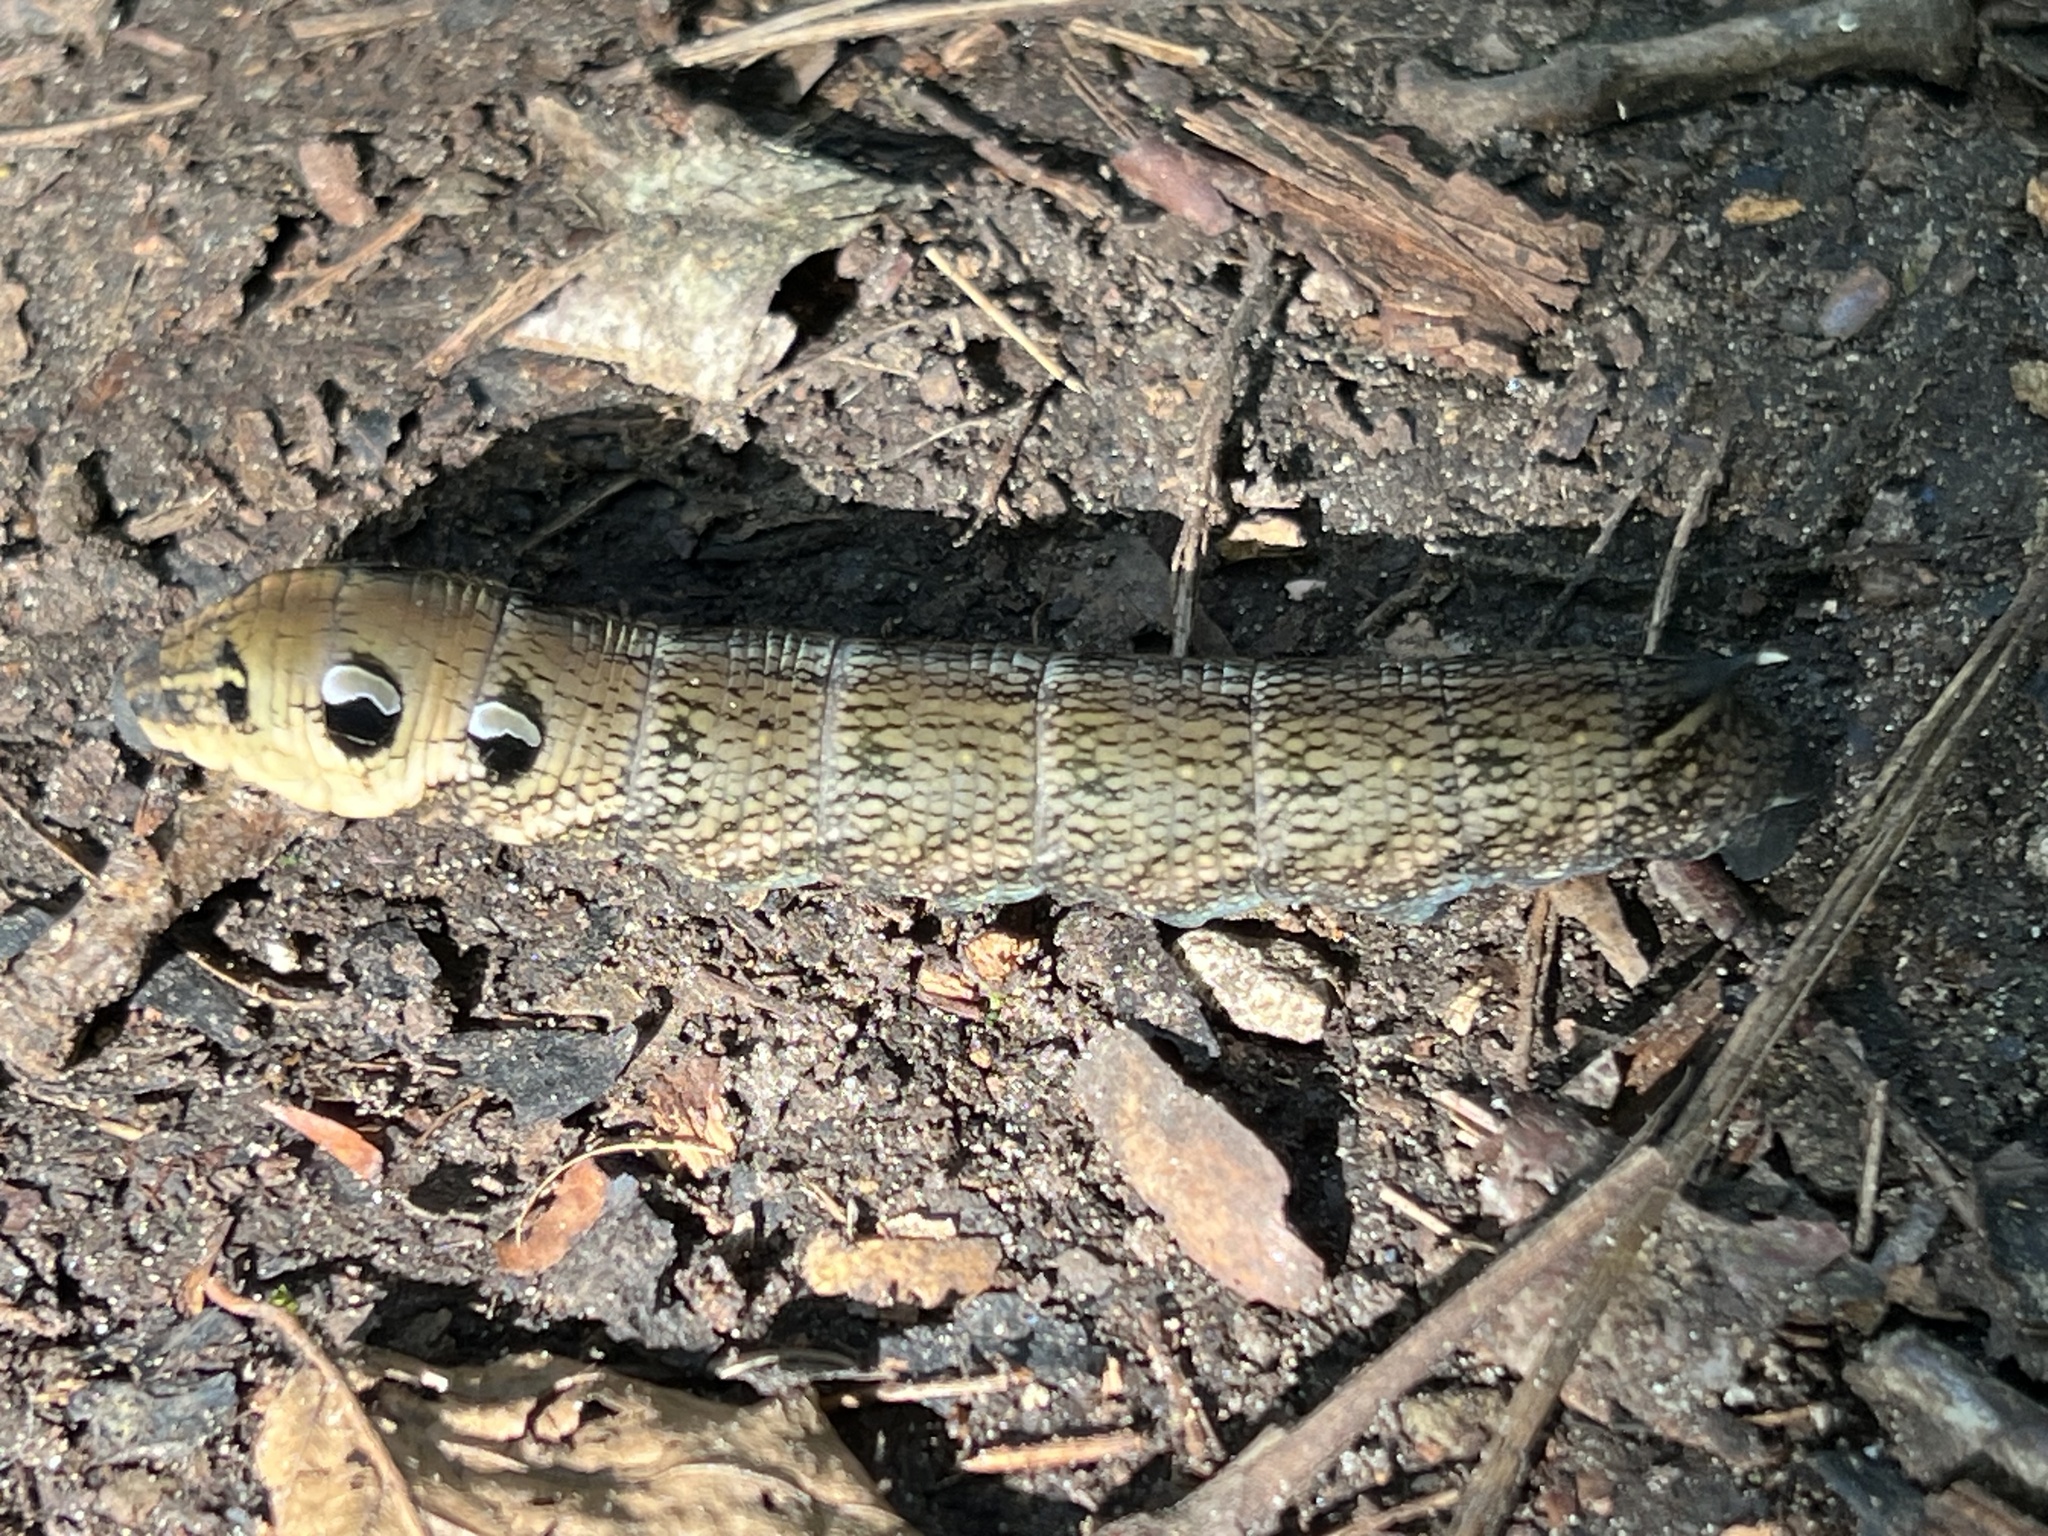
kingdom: Animalia
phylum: Arthropoda
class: Insecta
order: Lepidoptera
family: Sphingidae
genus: Deilephila
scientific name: Deilephila elpenor
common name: Elephant hawk-moth
